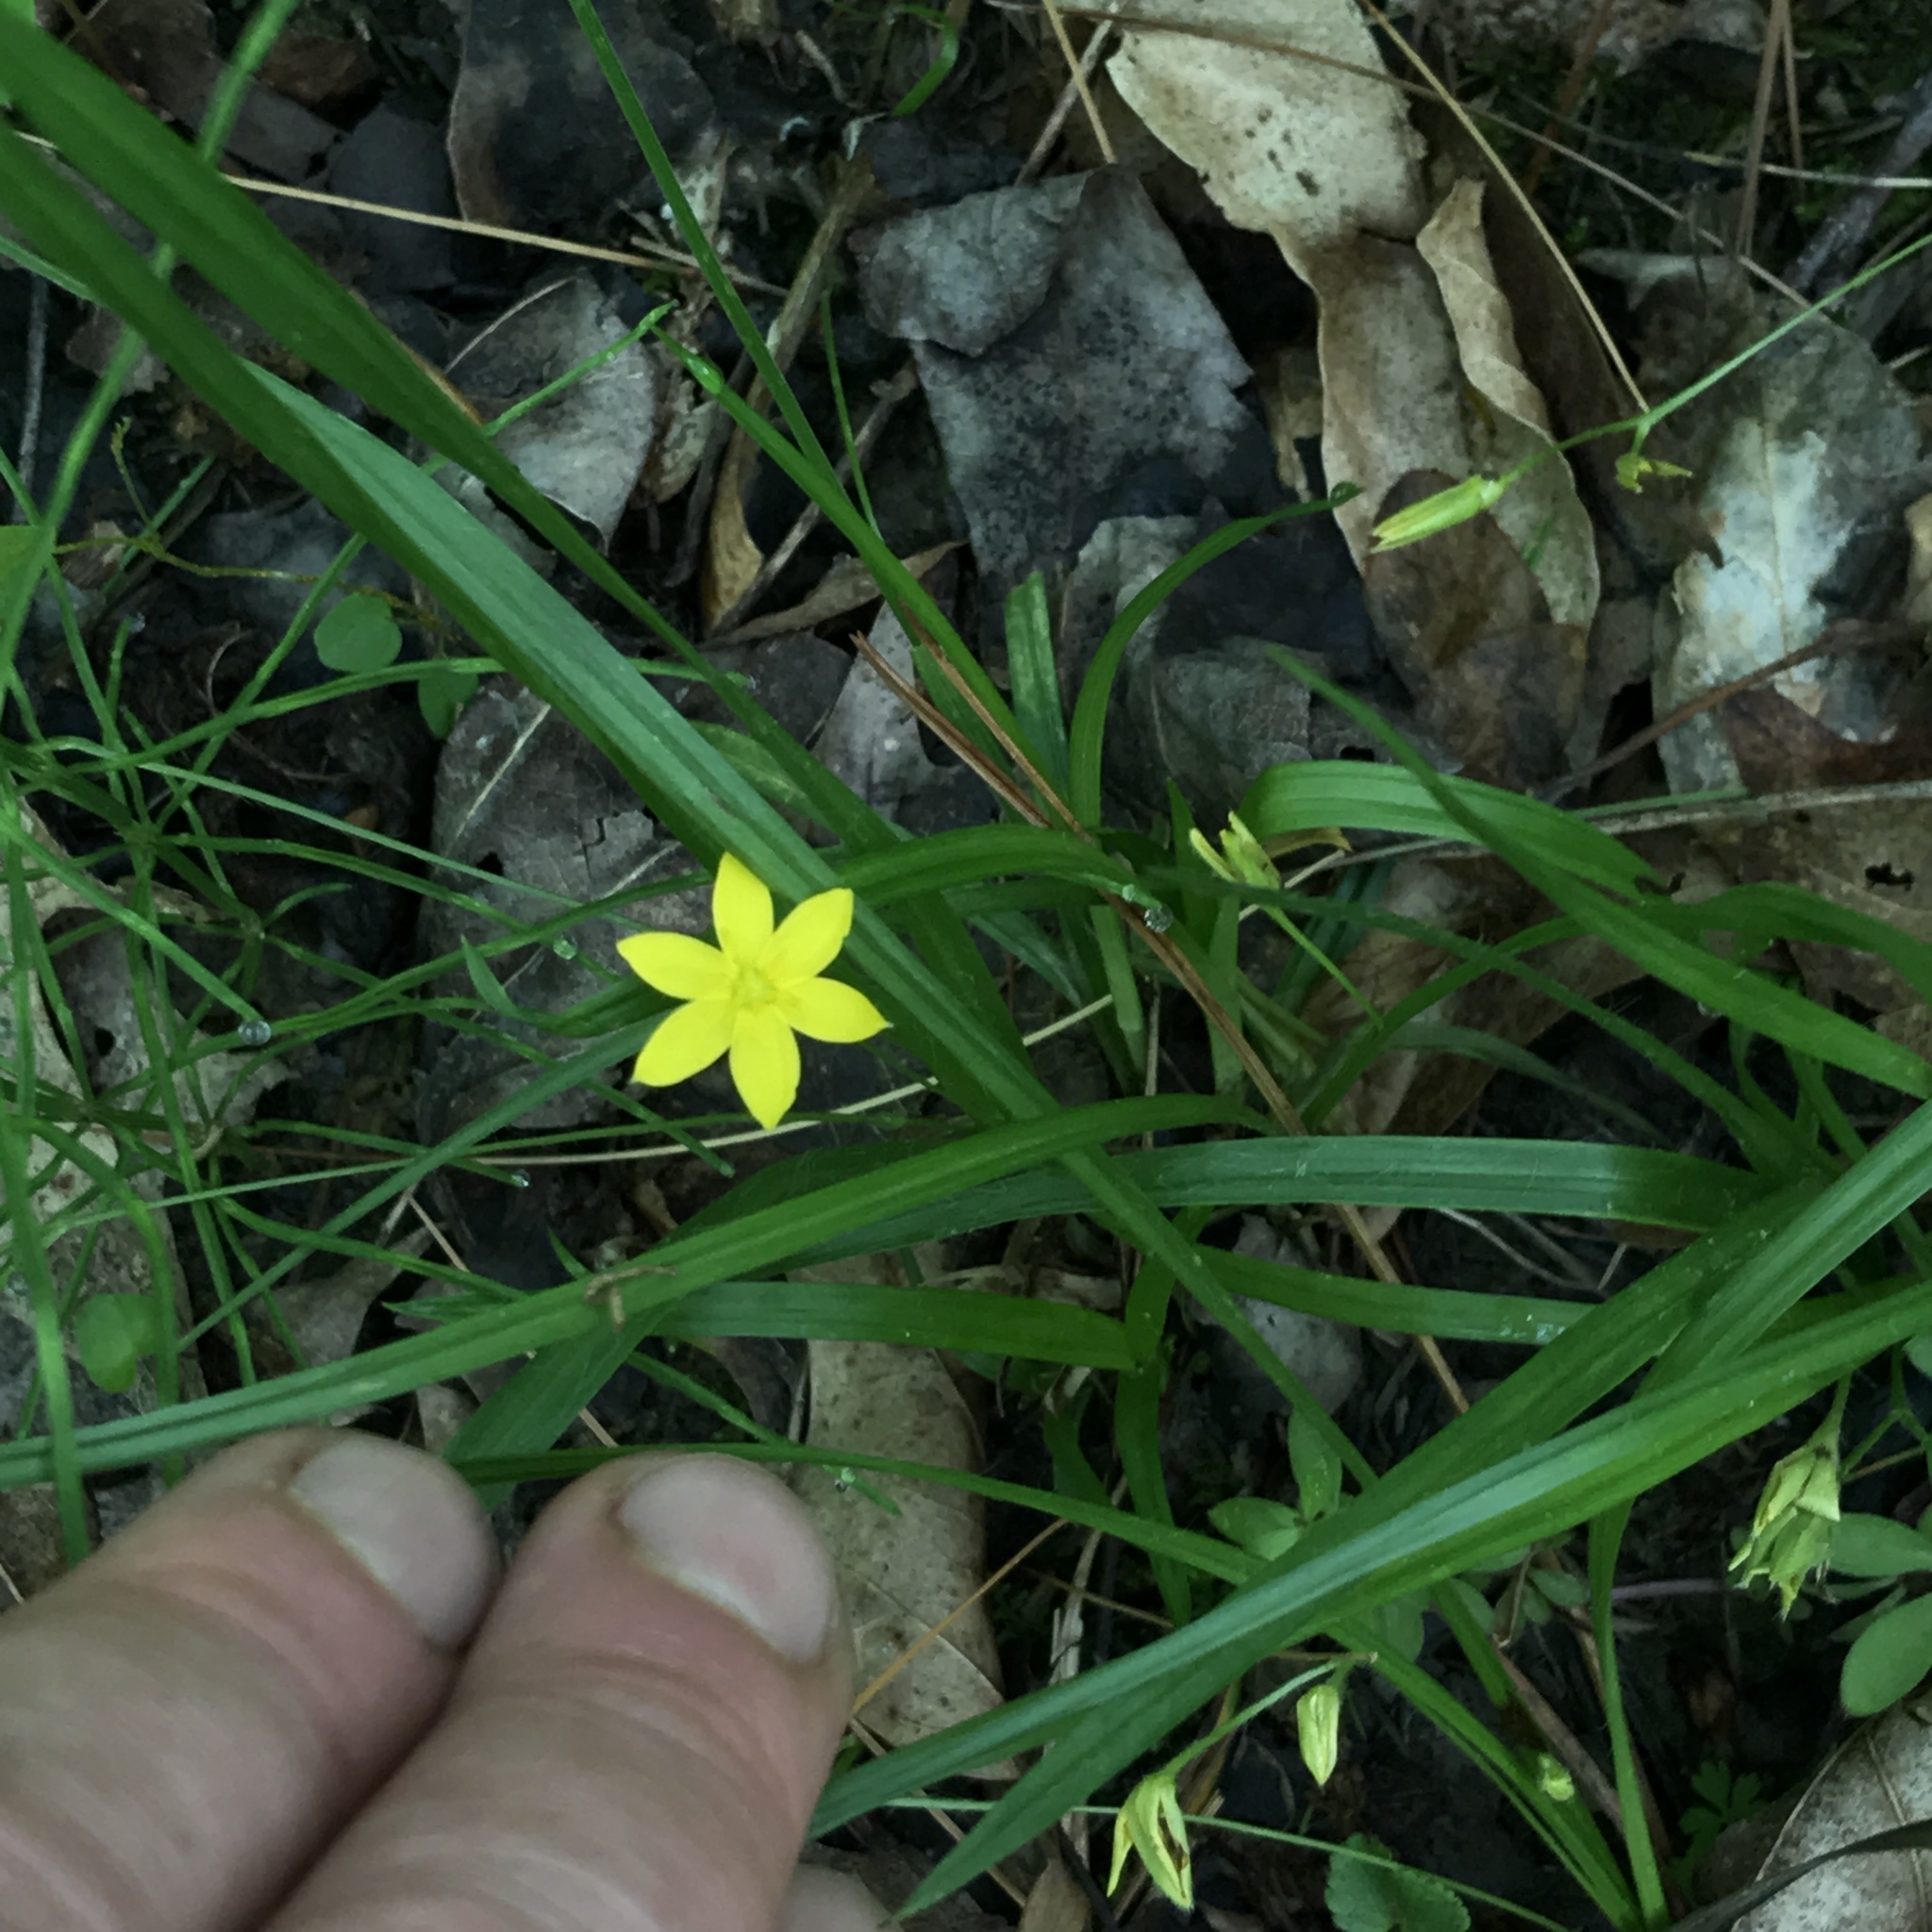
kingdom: Plantae
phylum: Tracheophyta
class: Liliopsida
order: Asparagales
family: Hypoxidaceae
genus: Hypoxis
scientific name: Hypoxis hirsuta
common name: Common goldstar
